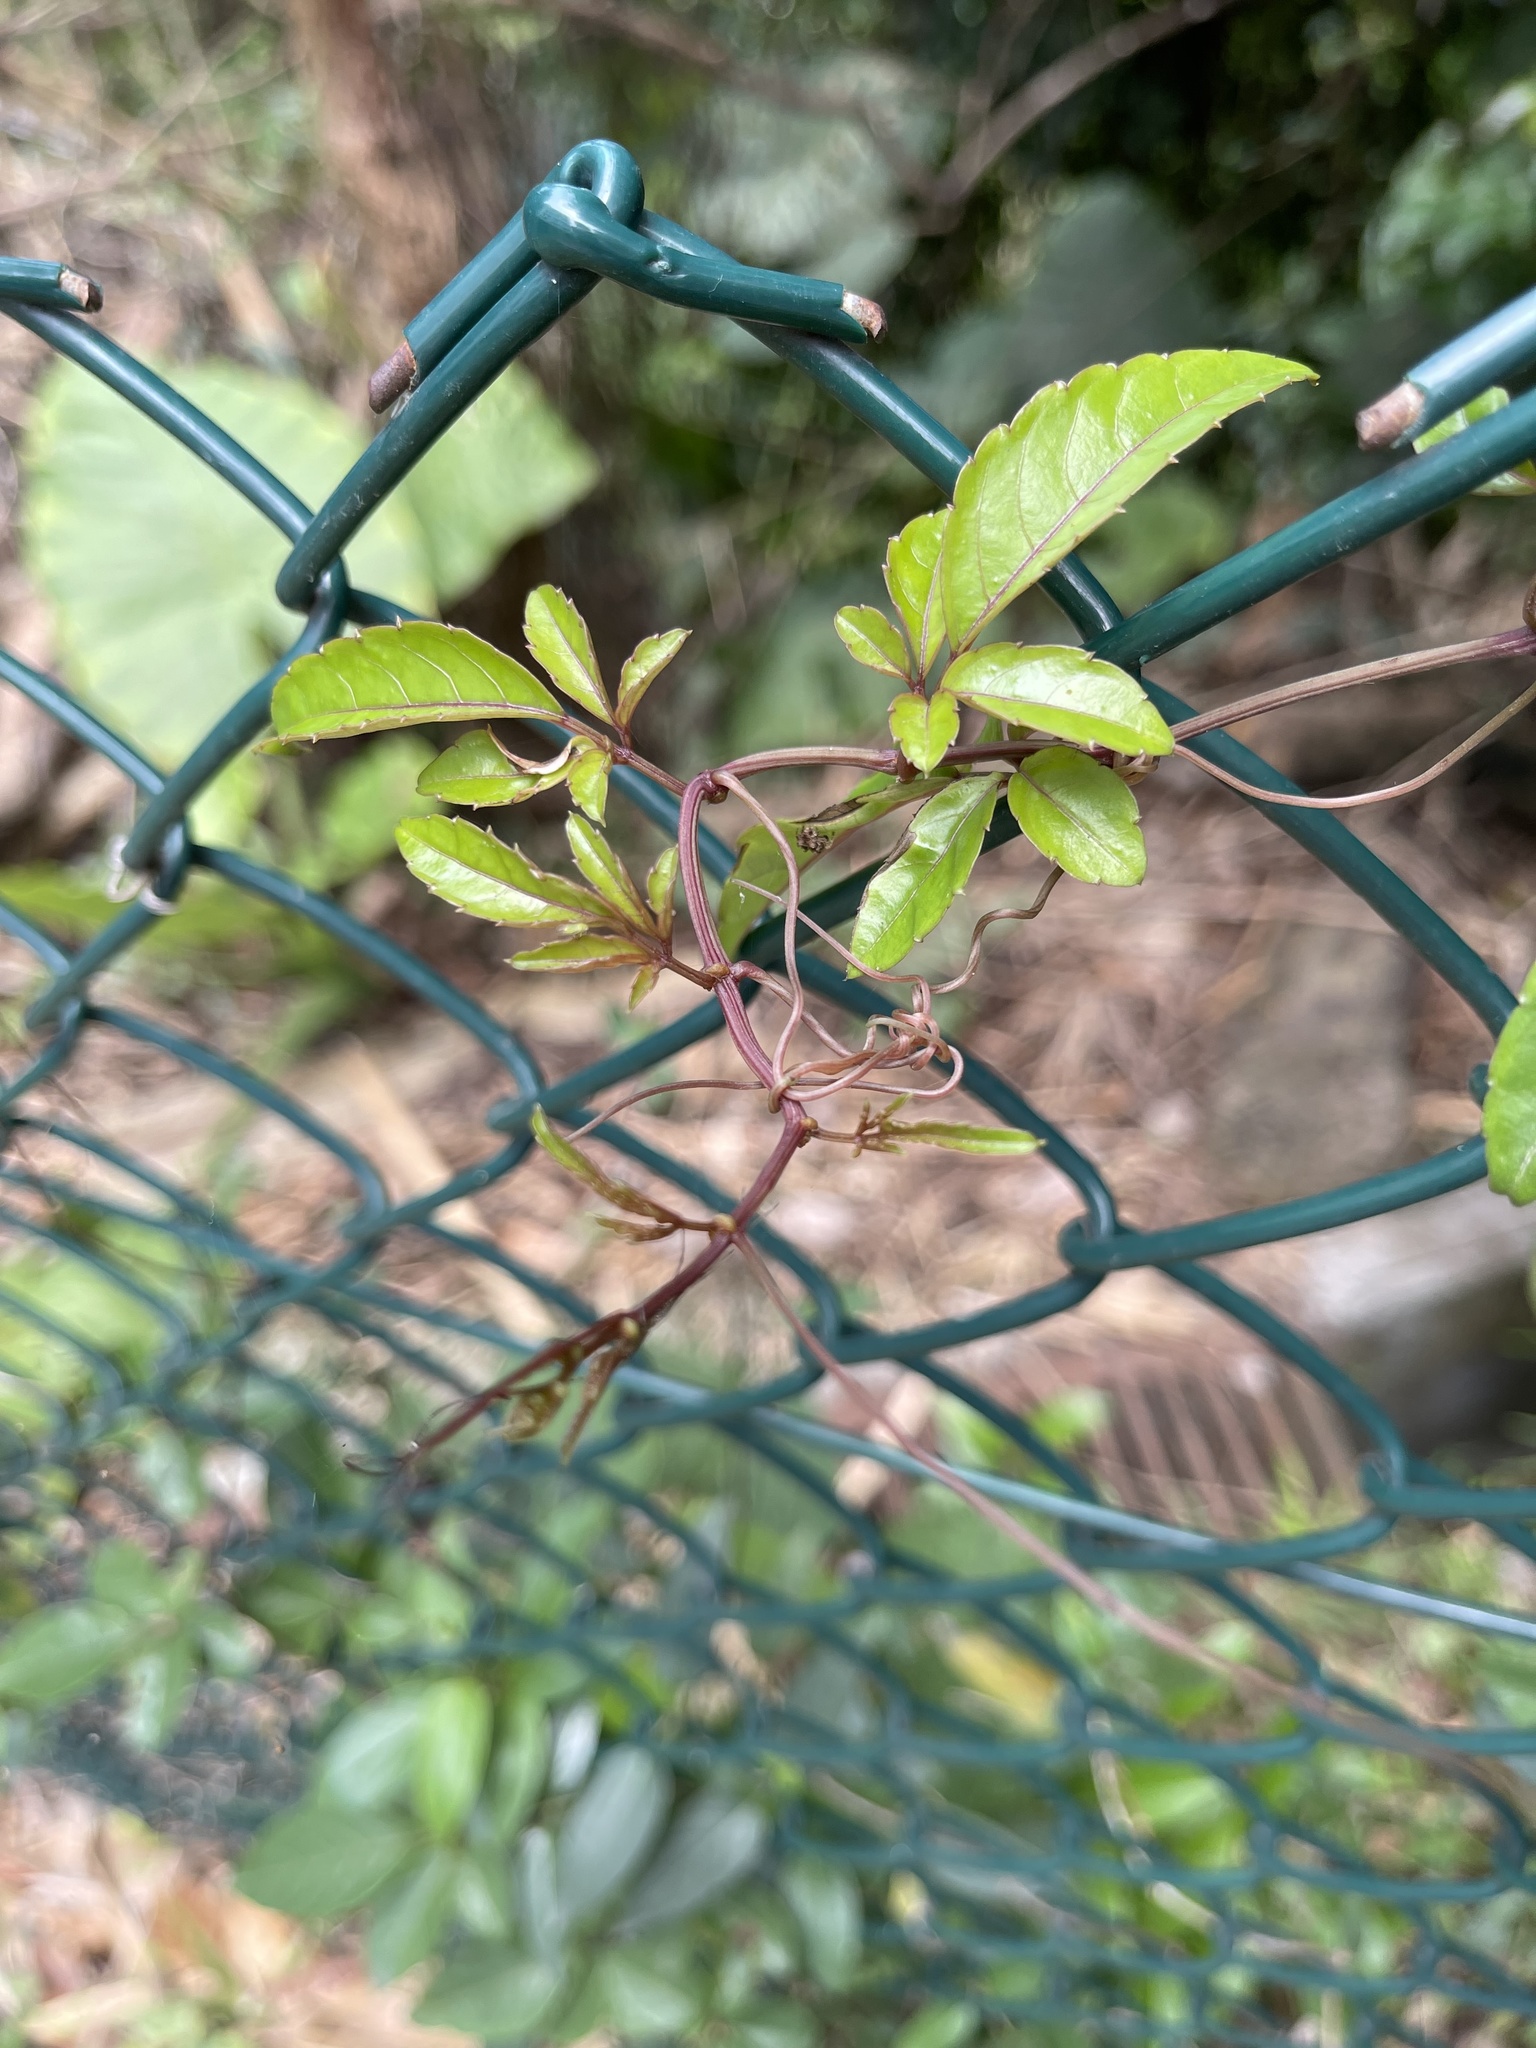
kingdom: Plantae
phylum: Tracheophyta
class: Magnoliopsida
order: Vitales
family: Vitaceae
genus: Causonis
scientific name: Causonis corniculata
